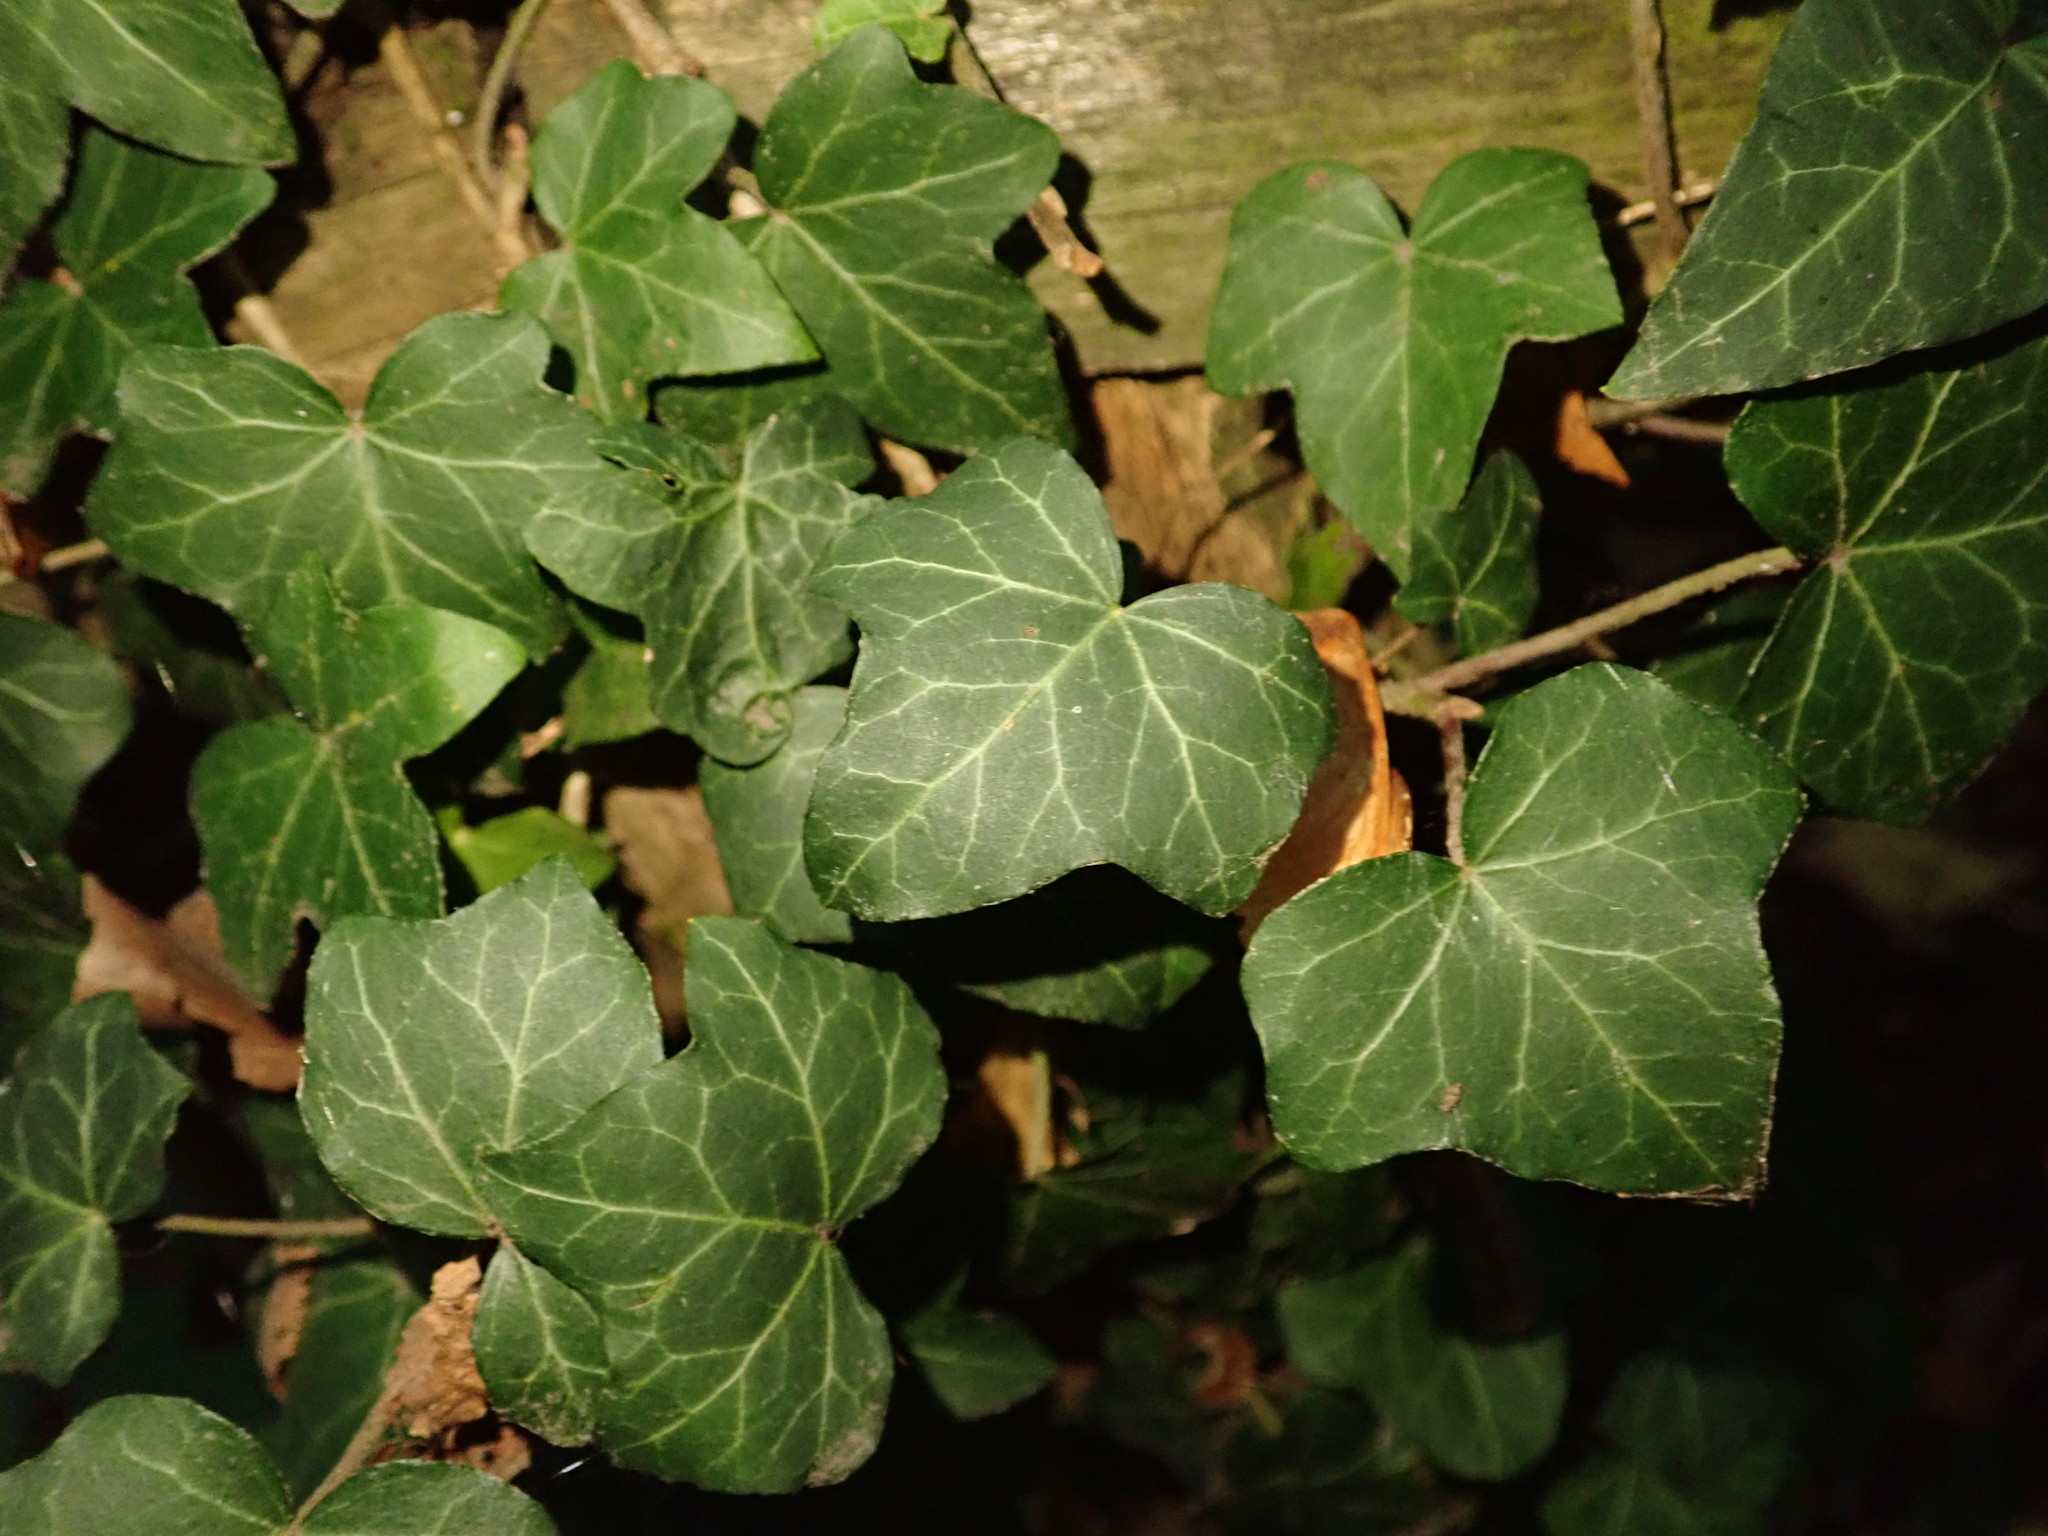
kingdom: Plantae
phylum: Tracheophyta
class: Magnoliopsida
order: Apiales
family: Araliaceae
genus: Hedera
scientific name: Hedera helix
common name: Ivy
